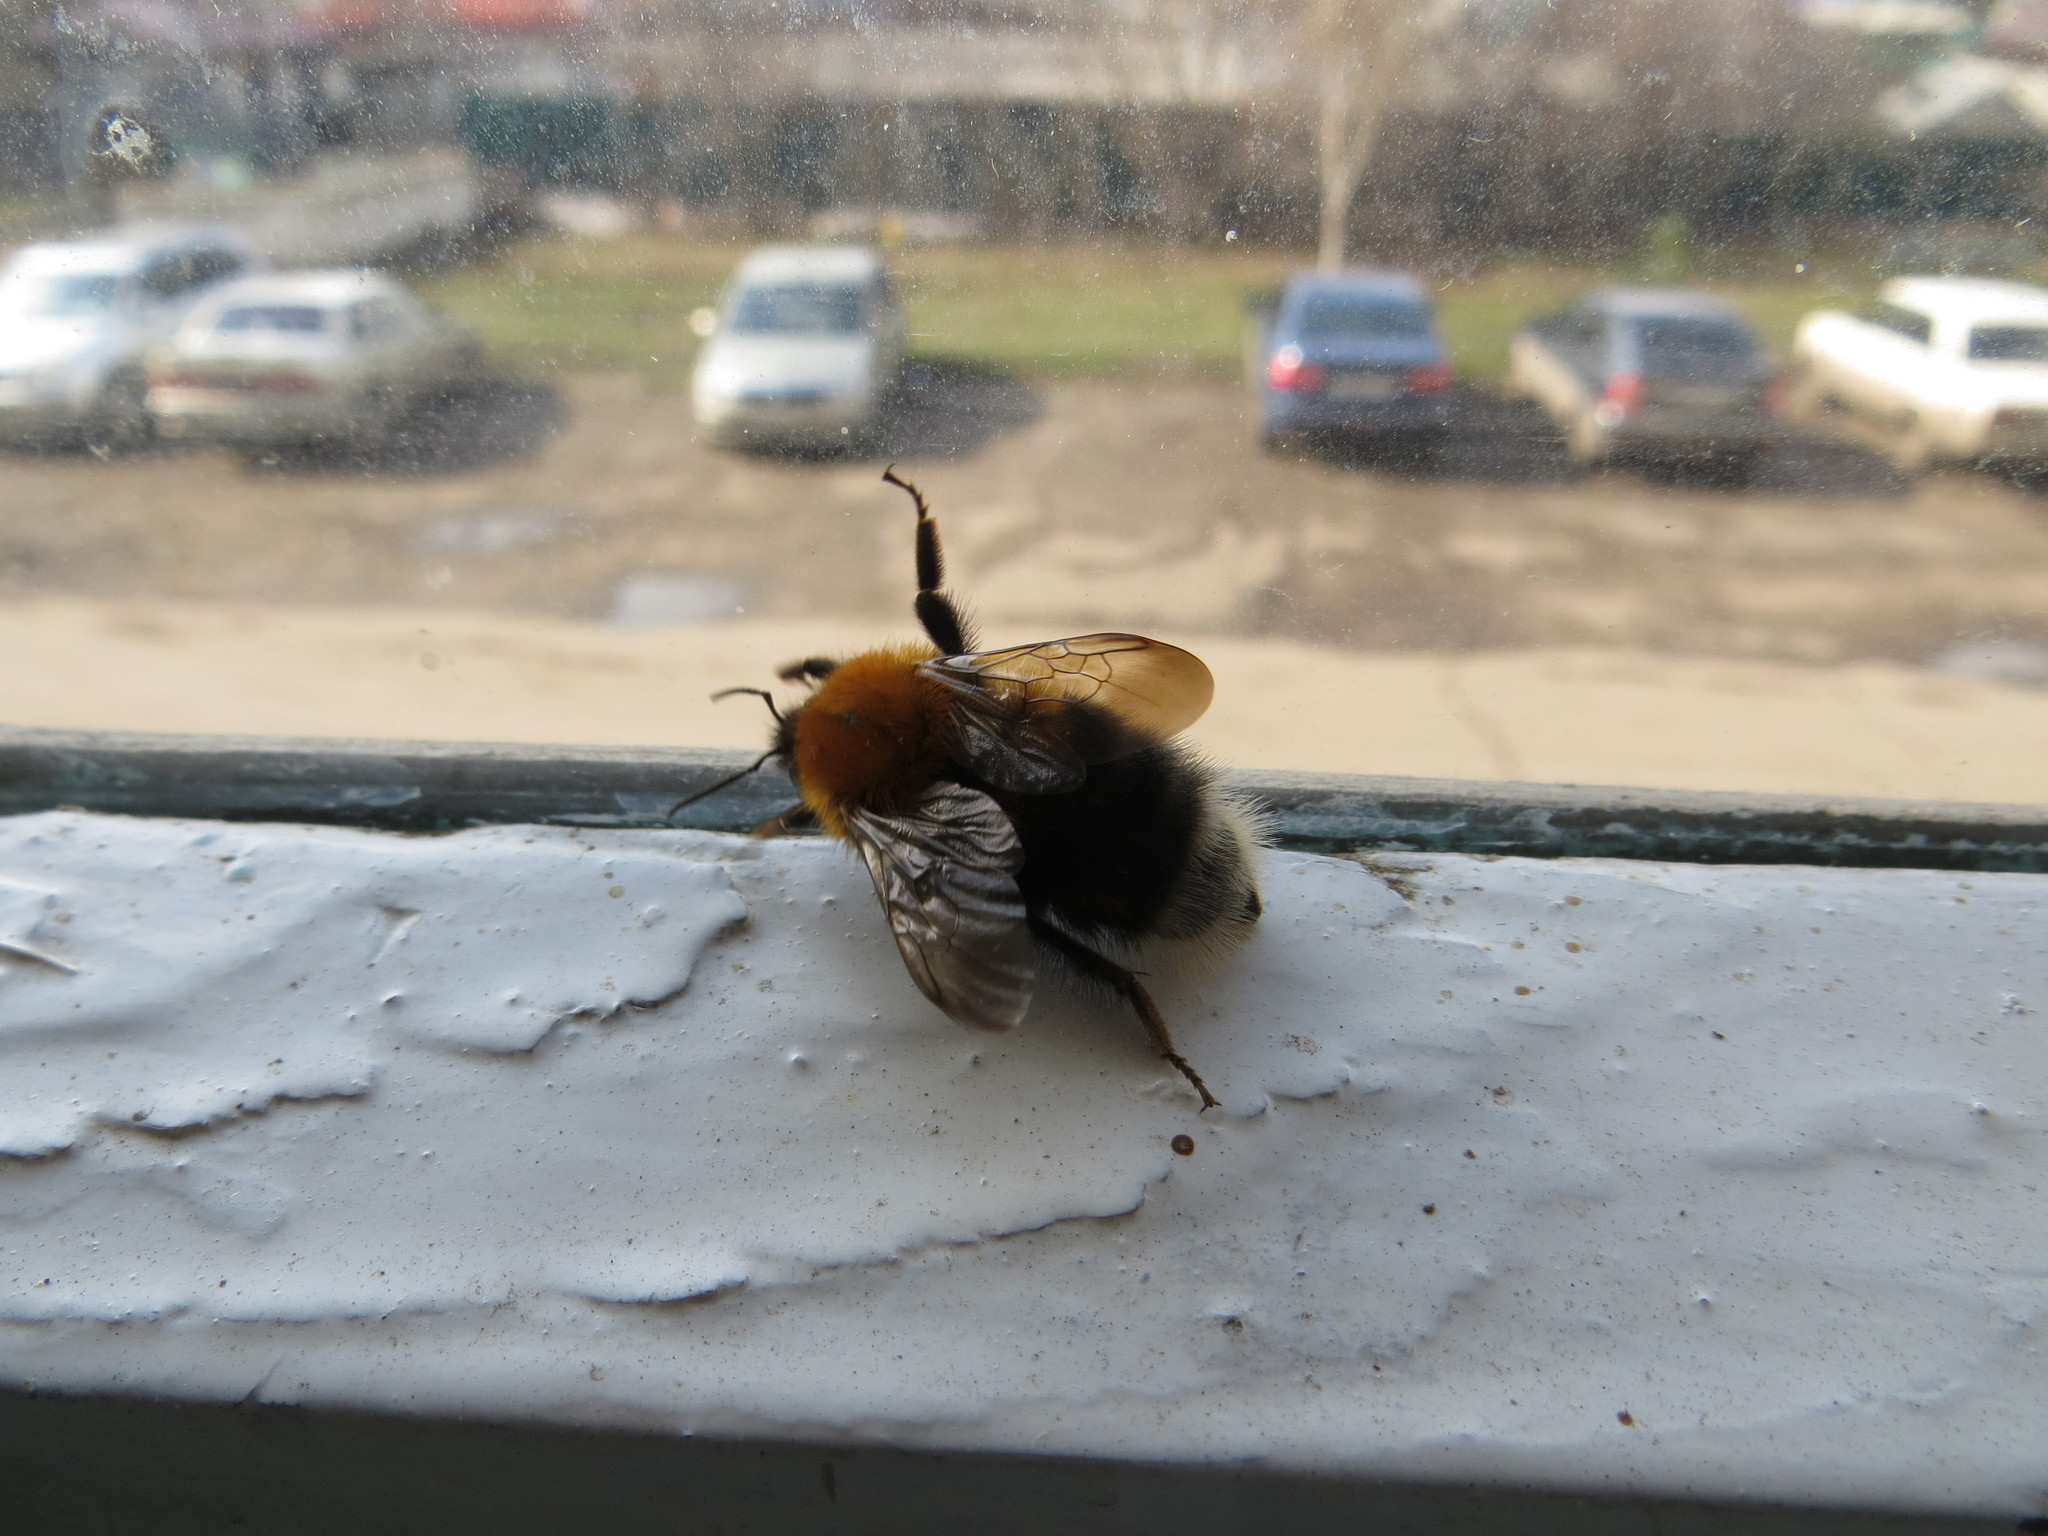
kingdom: Animalia
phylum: Arthropoda
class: Insecta
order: Hymenoptera
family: Apidae
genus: Bombus
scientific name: Bombus hypnorum
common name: New garden bumblebee
